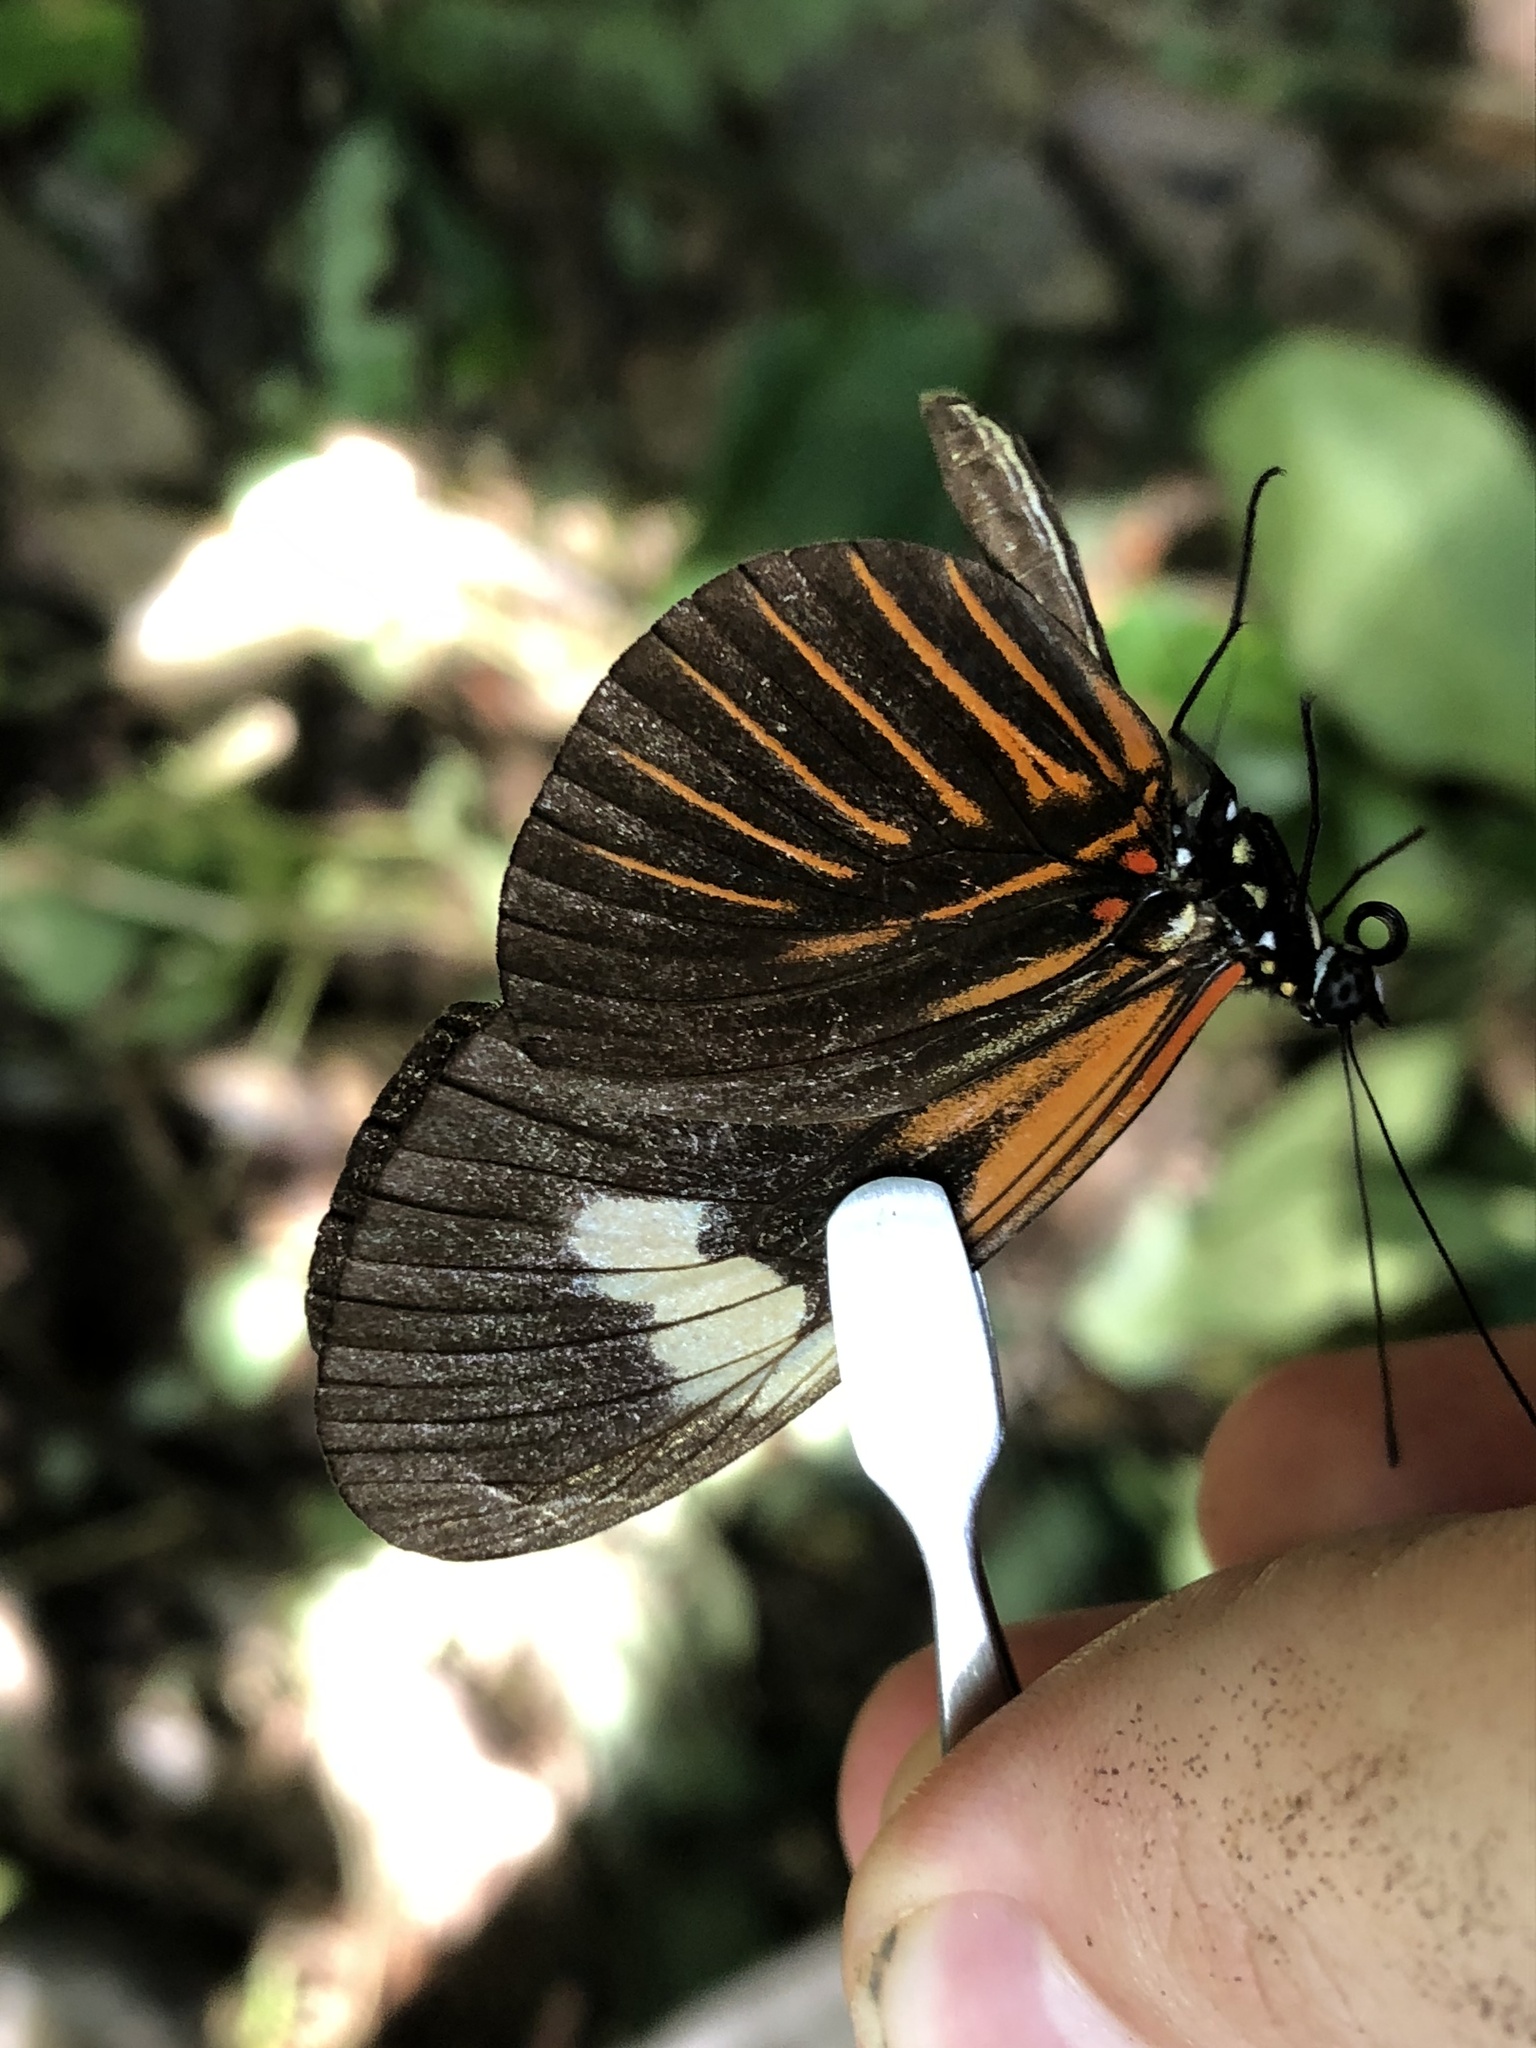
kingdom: Animalia
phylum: Arthropoda
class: Insecta
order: Lepidoptera
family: Nymphalidae
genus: Heliconius
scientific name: Heliconius melpomene
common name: Postman
